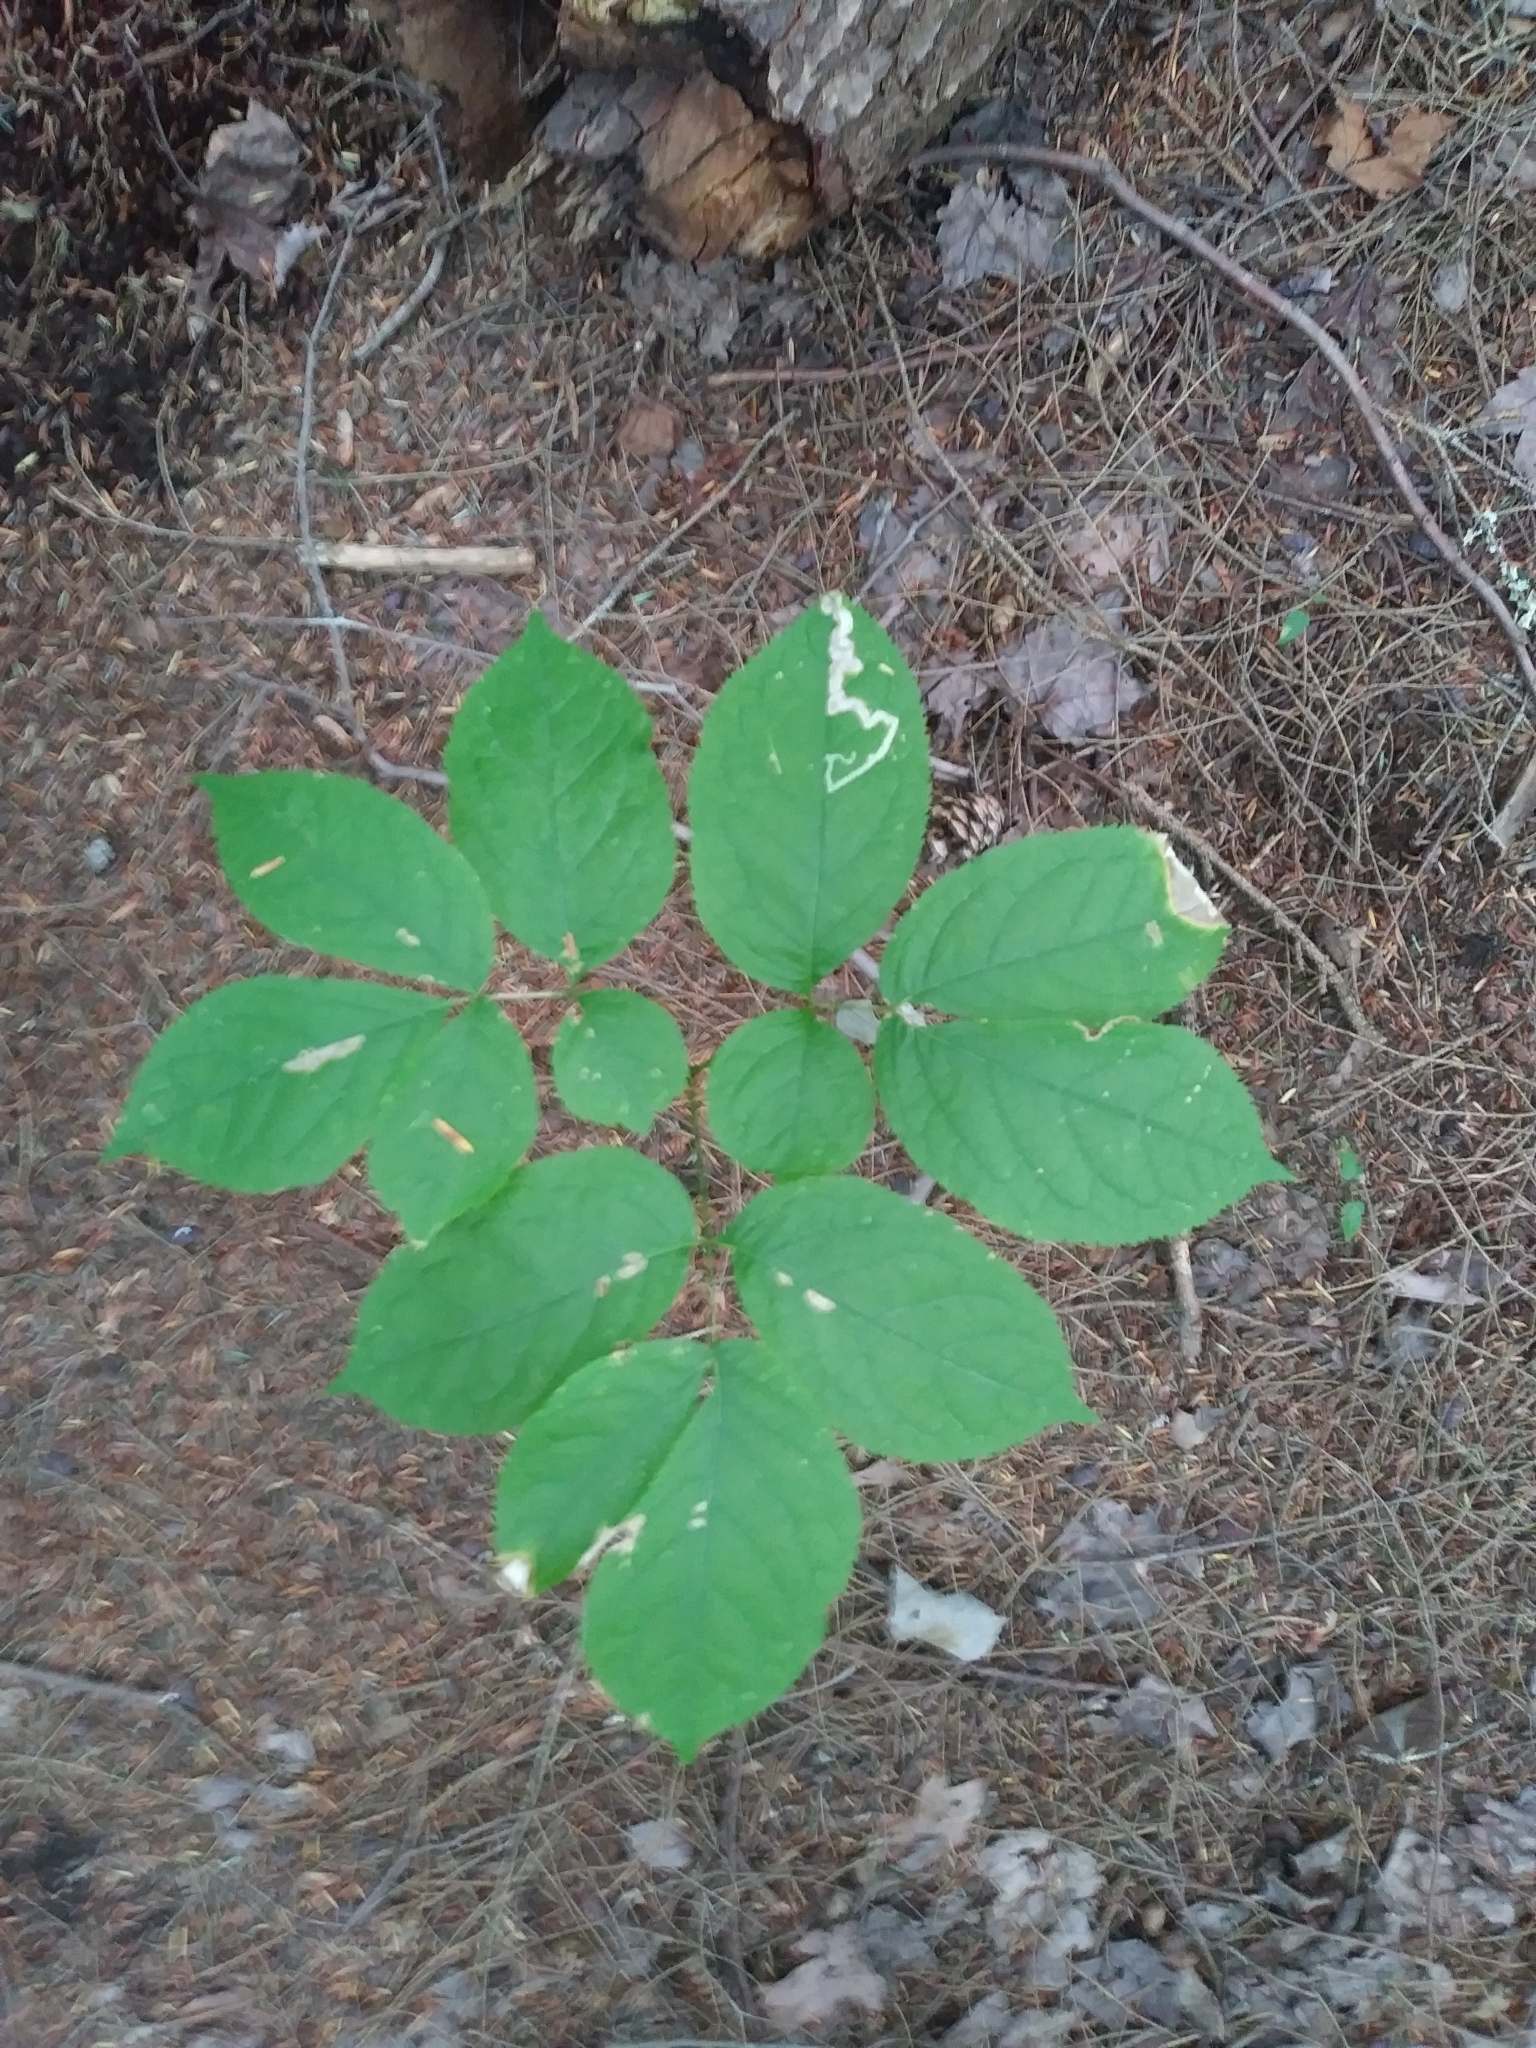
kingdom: Plantae
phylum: Tracheophyta
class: Magnoliopsida
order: Apiales
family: Araliaceae
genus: Aralia
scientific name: Aralia nudicaulis
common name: Wild sarsaparilla
